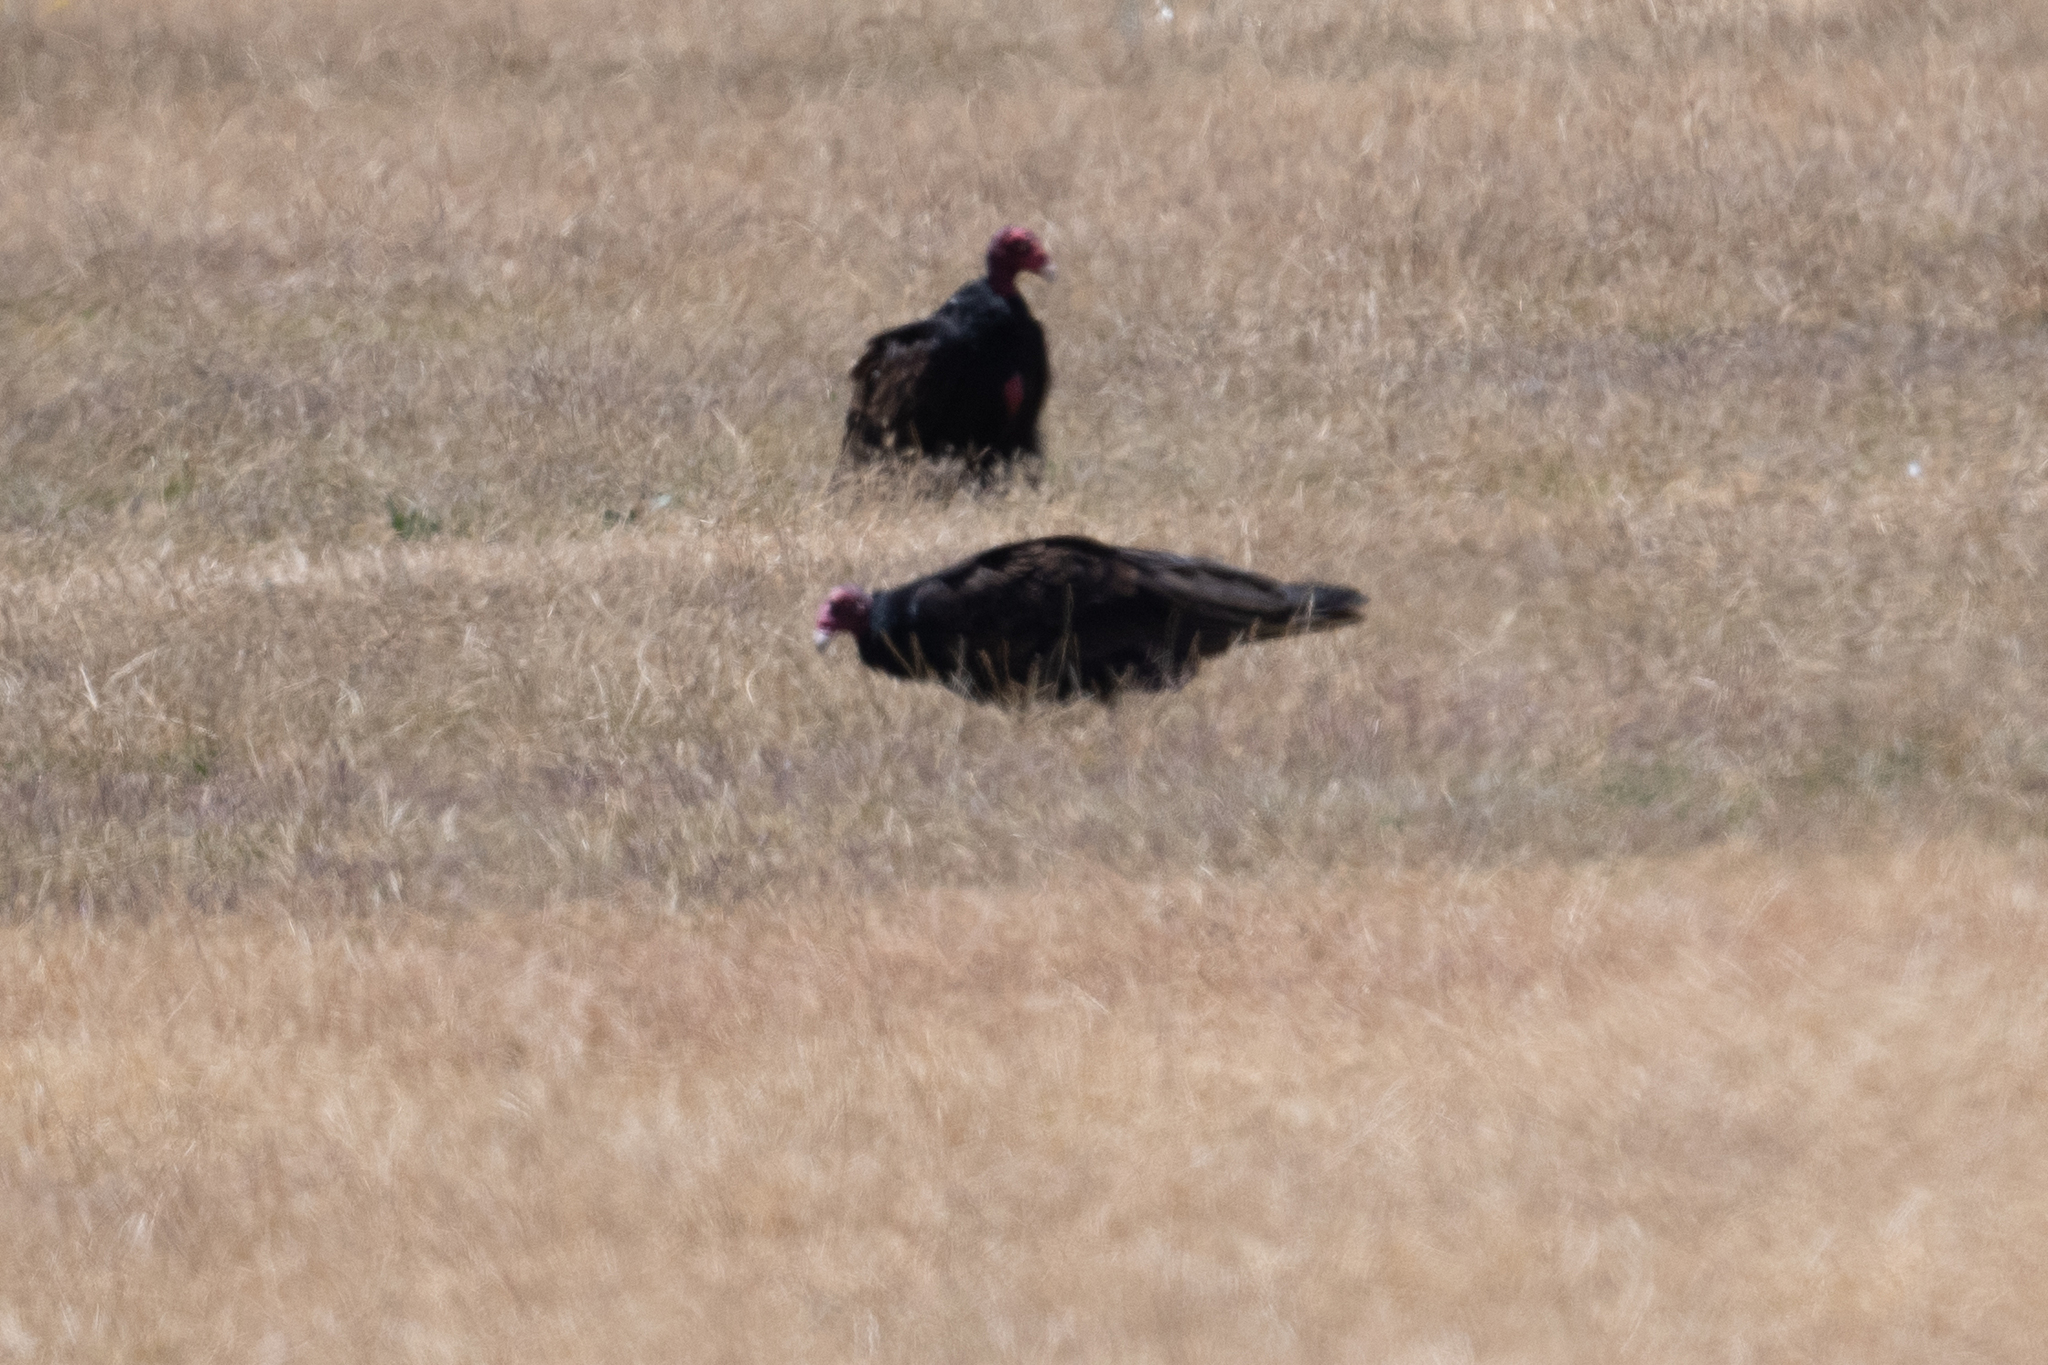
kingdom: Animalia
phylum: Chordata
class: Aves
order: Accipitriformes
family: Cathartidae
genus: Cathartes
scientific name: Cathartes aura
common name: Turkey vulture
